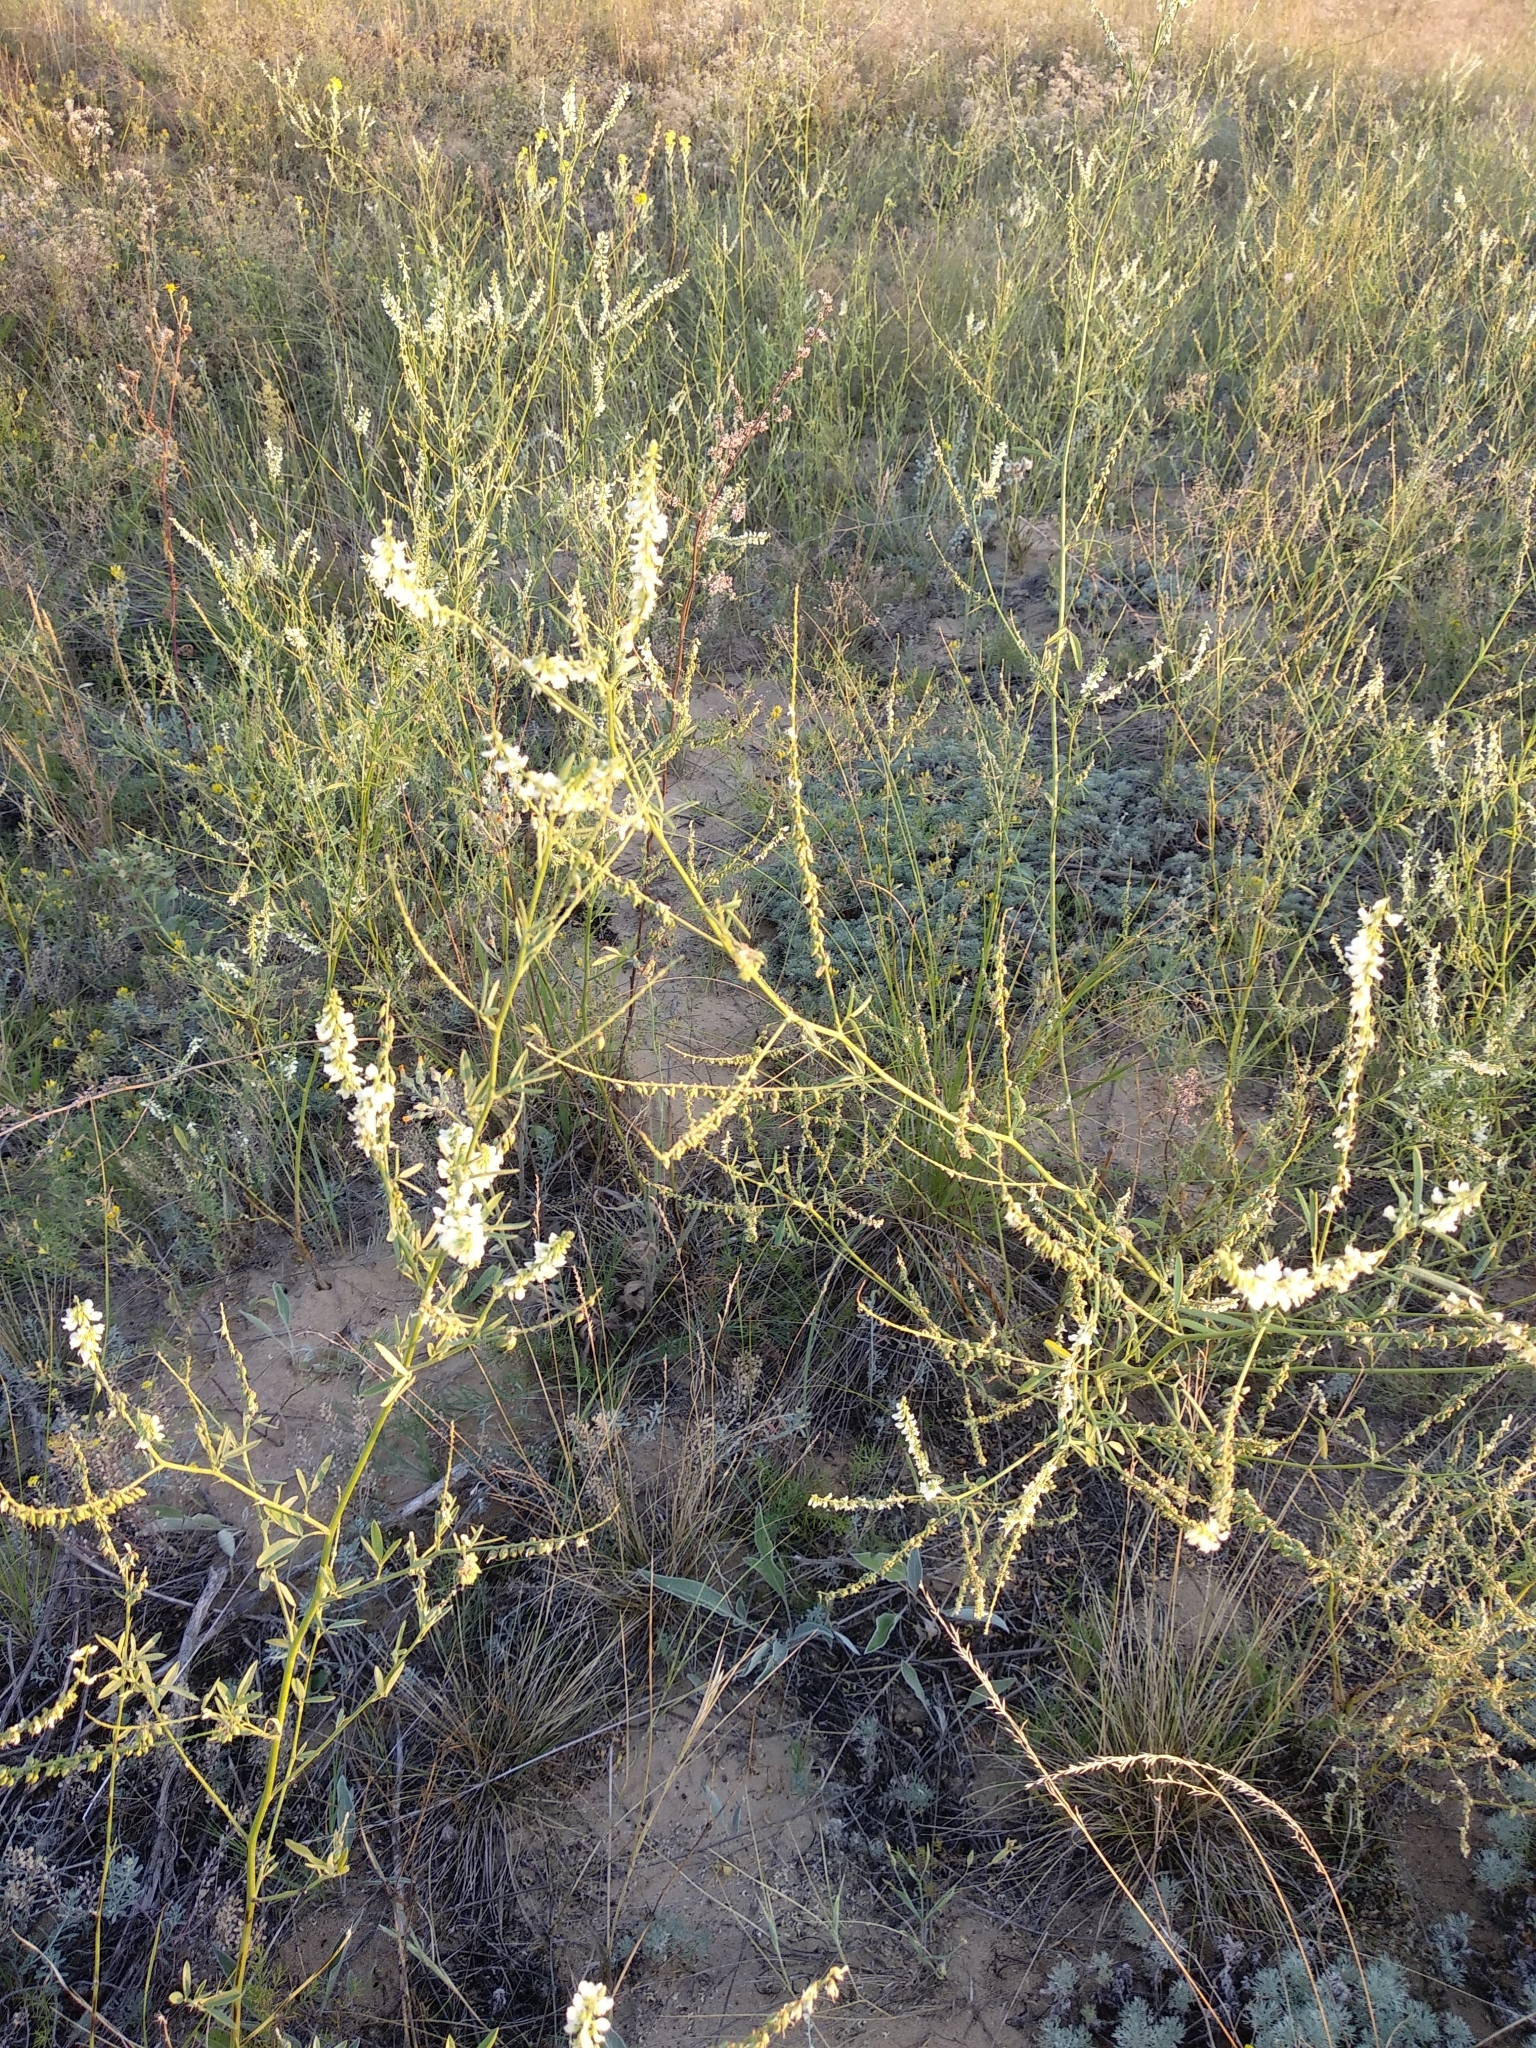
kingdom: Plantae
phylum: Tracheophyta
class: Magnoliopsida
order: Fabales
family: Fabaceae
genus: Melilotus
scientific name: Melilotus albus
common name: White melilot
